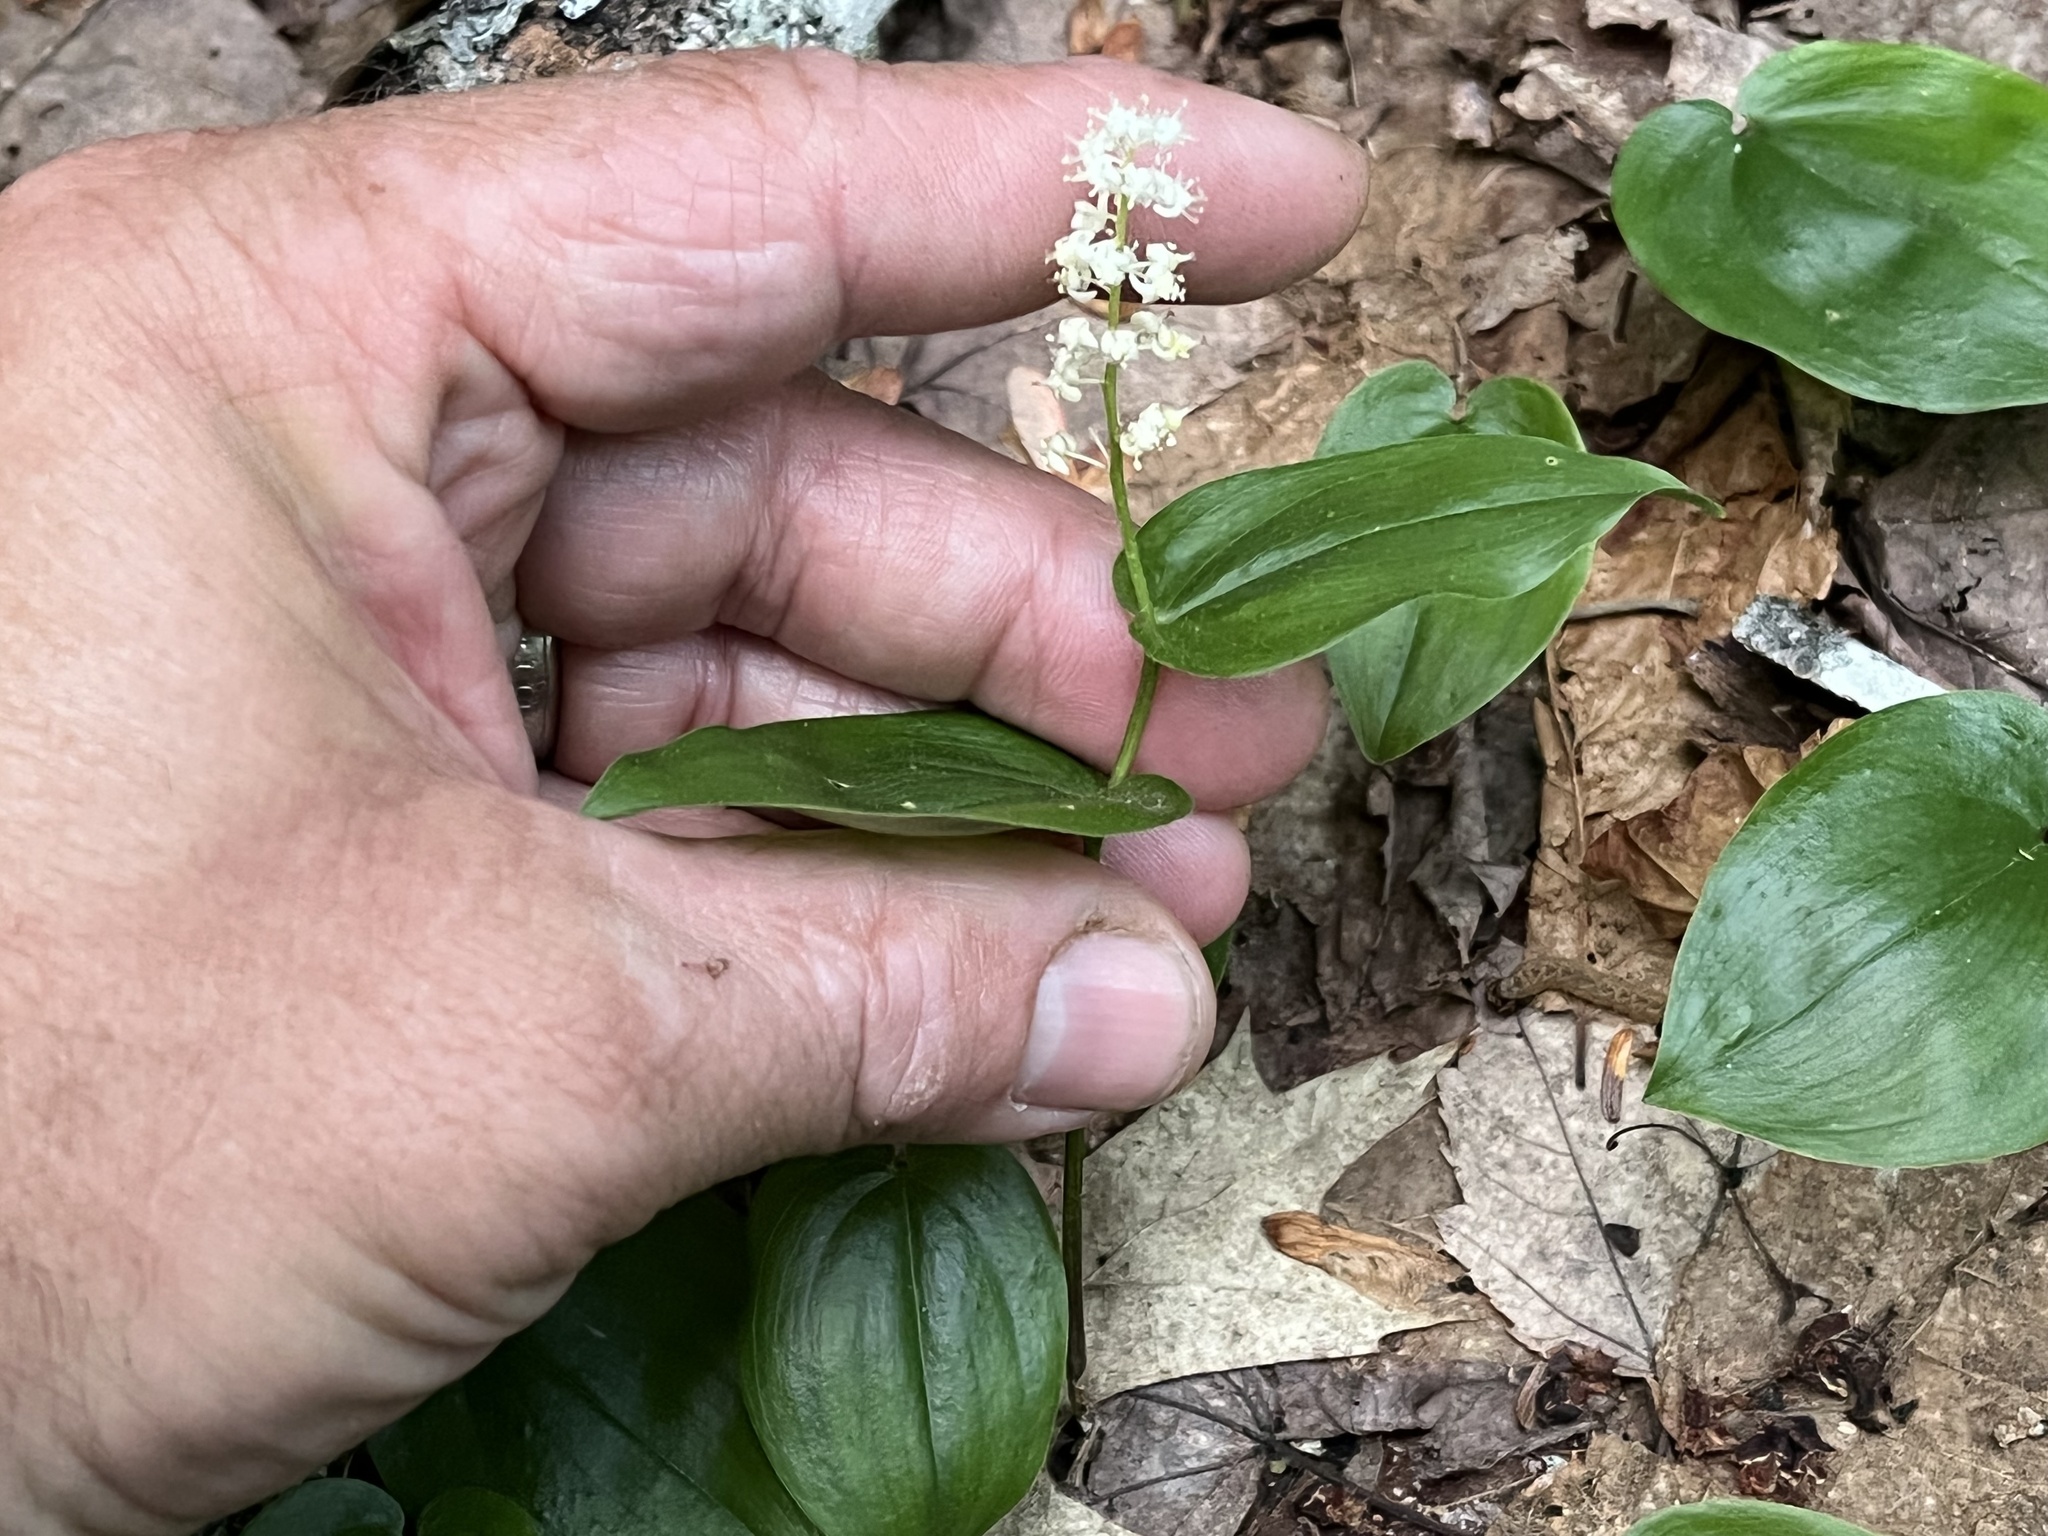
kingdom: Plantae
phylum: Tracheophyta
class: Liliopsida
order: Asparagales
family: Asparagaceae
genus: Maianthemum
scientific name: Maianthemum canadense
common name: False lily-of-the-valley
